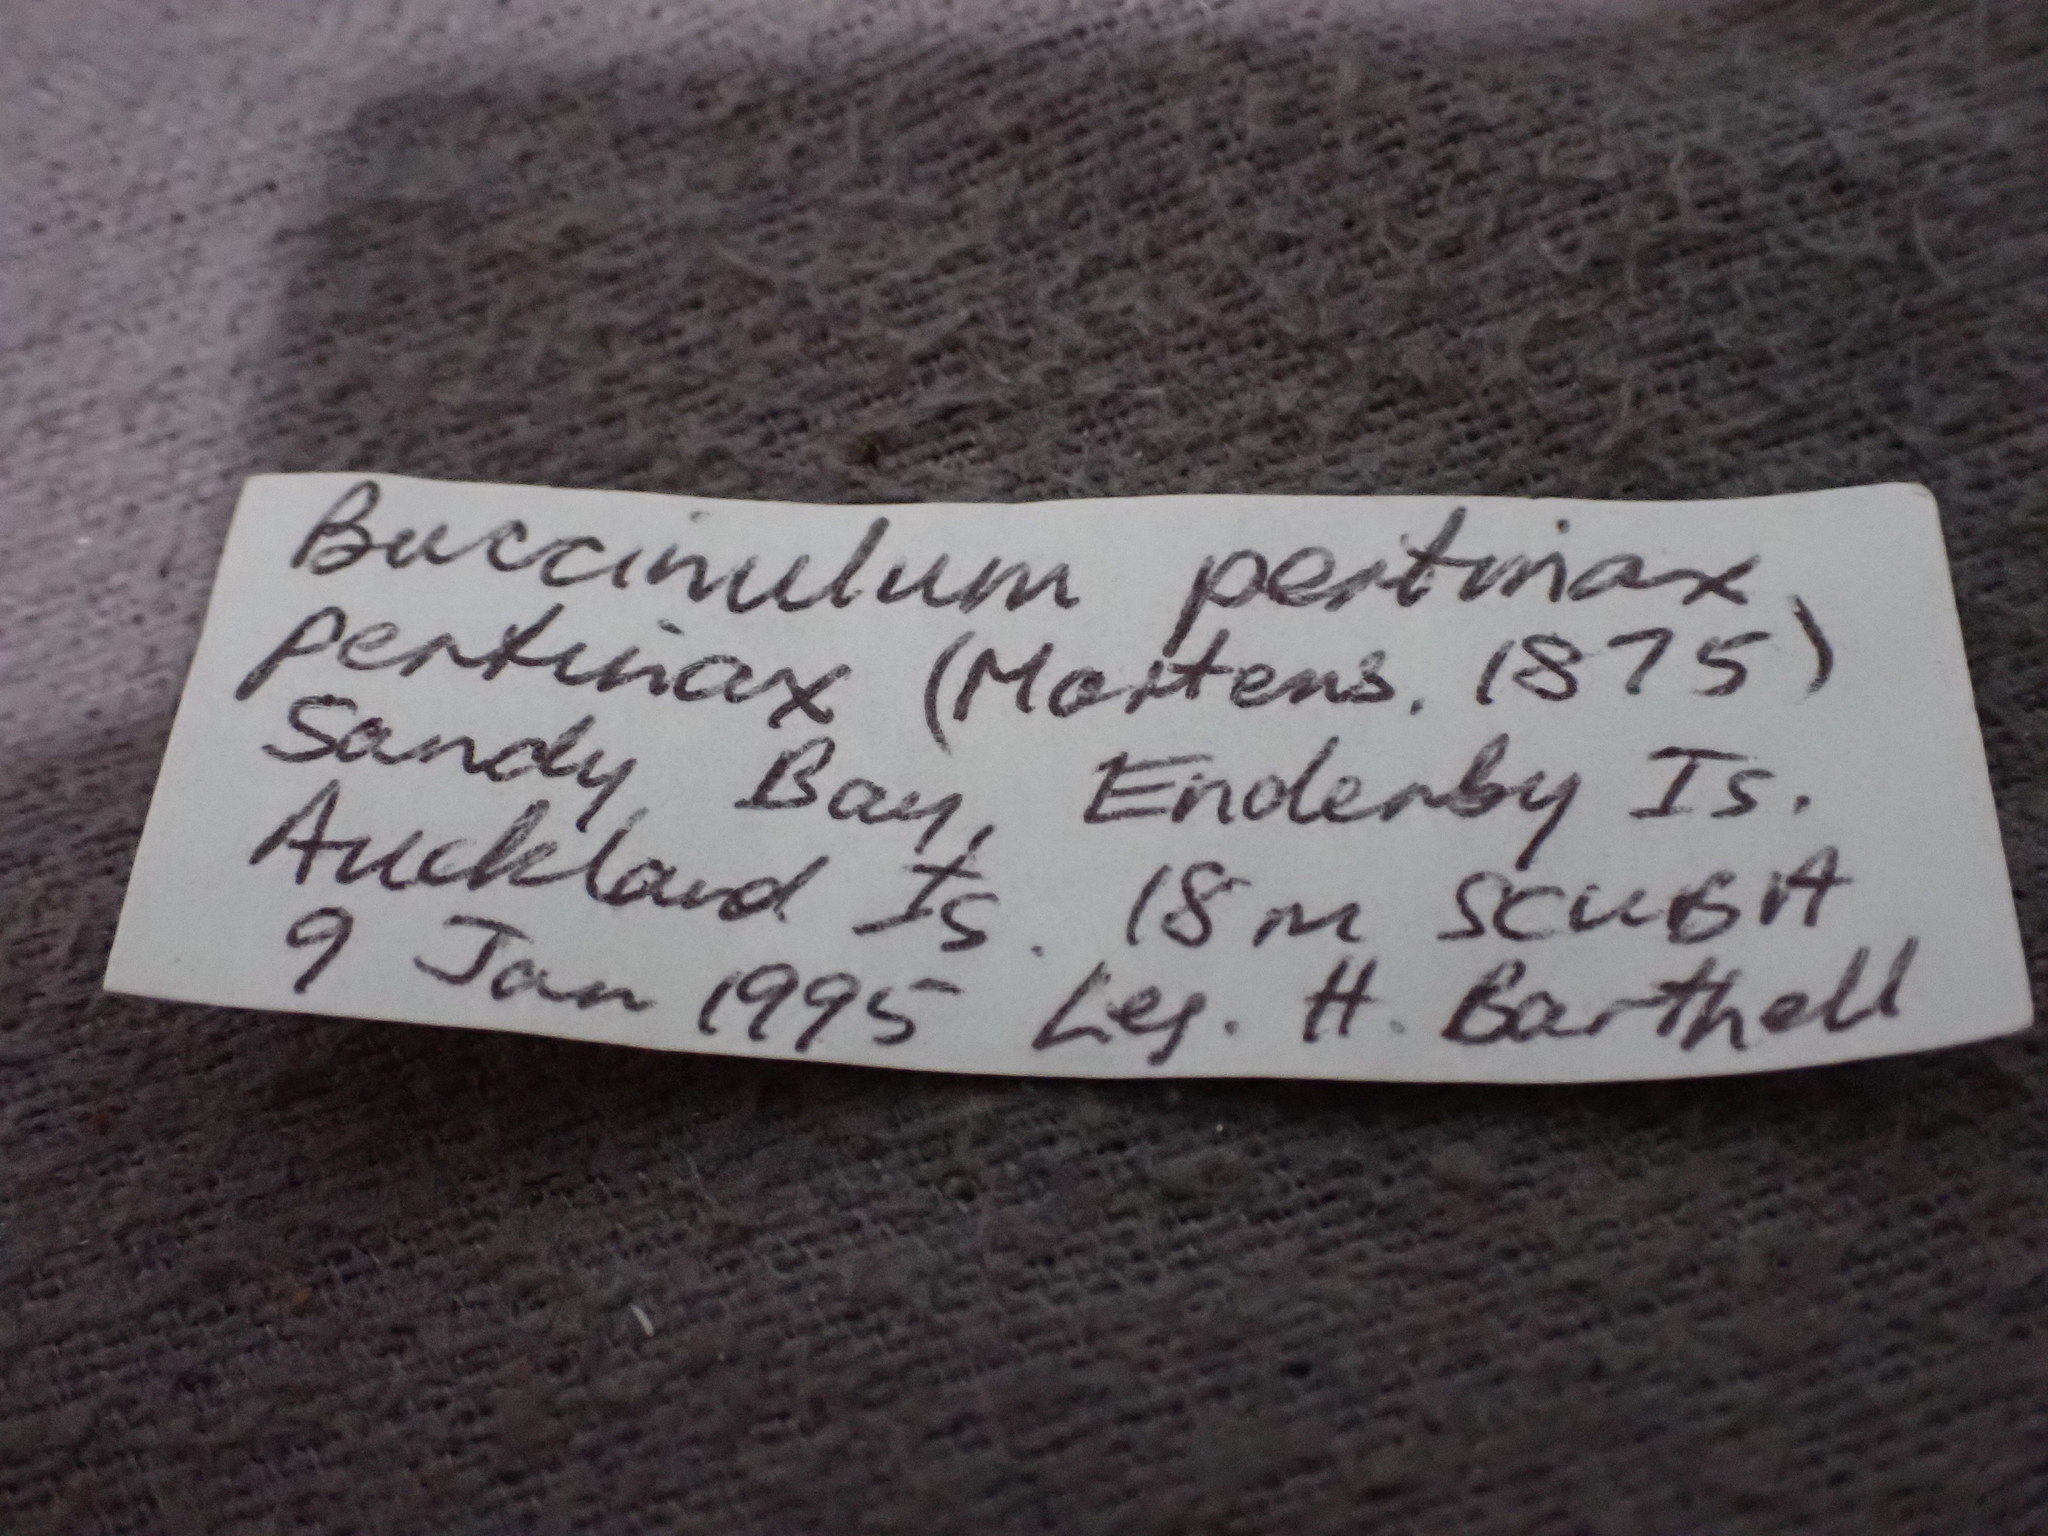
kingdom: Animalia
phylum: Mollusca
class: Gastropoda
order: Neogastropoda
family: Tudiclidae
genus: Buccinulum
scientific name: Buccinulum pertinax
